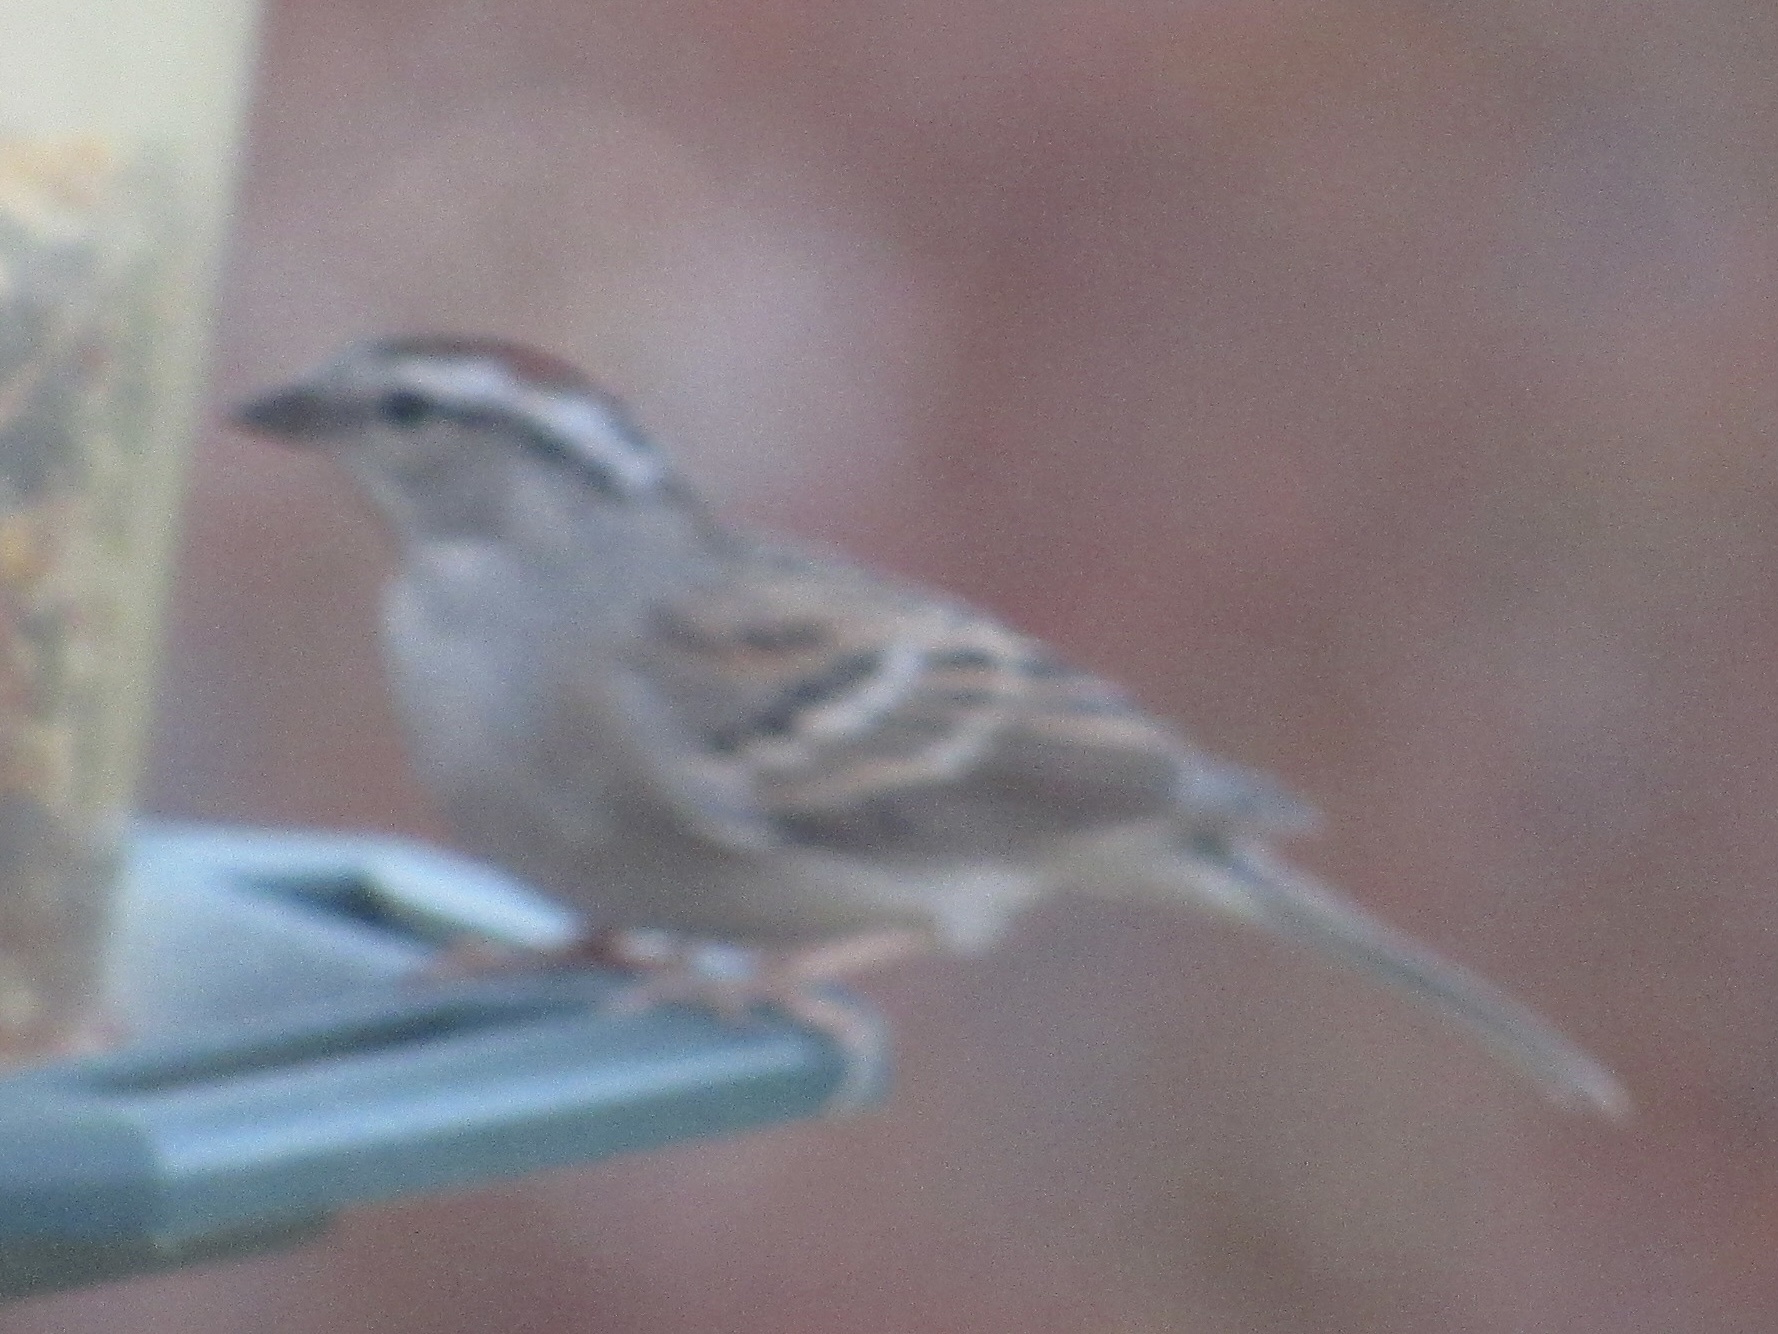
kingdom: Animalia
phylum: Chordata
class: Aves
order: Passeriformes
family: Passerellidae
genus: Spizella
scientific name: Spizella passerina
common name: Chipping sparrow
